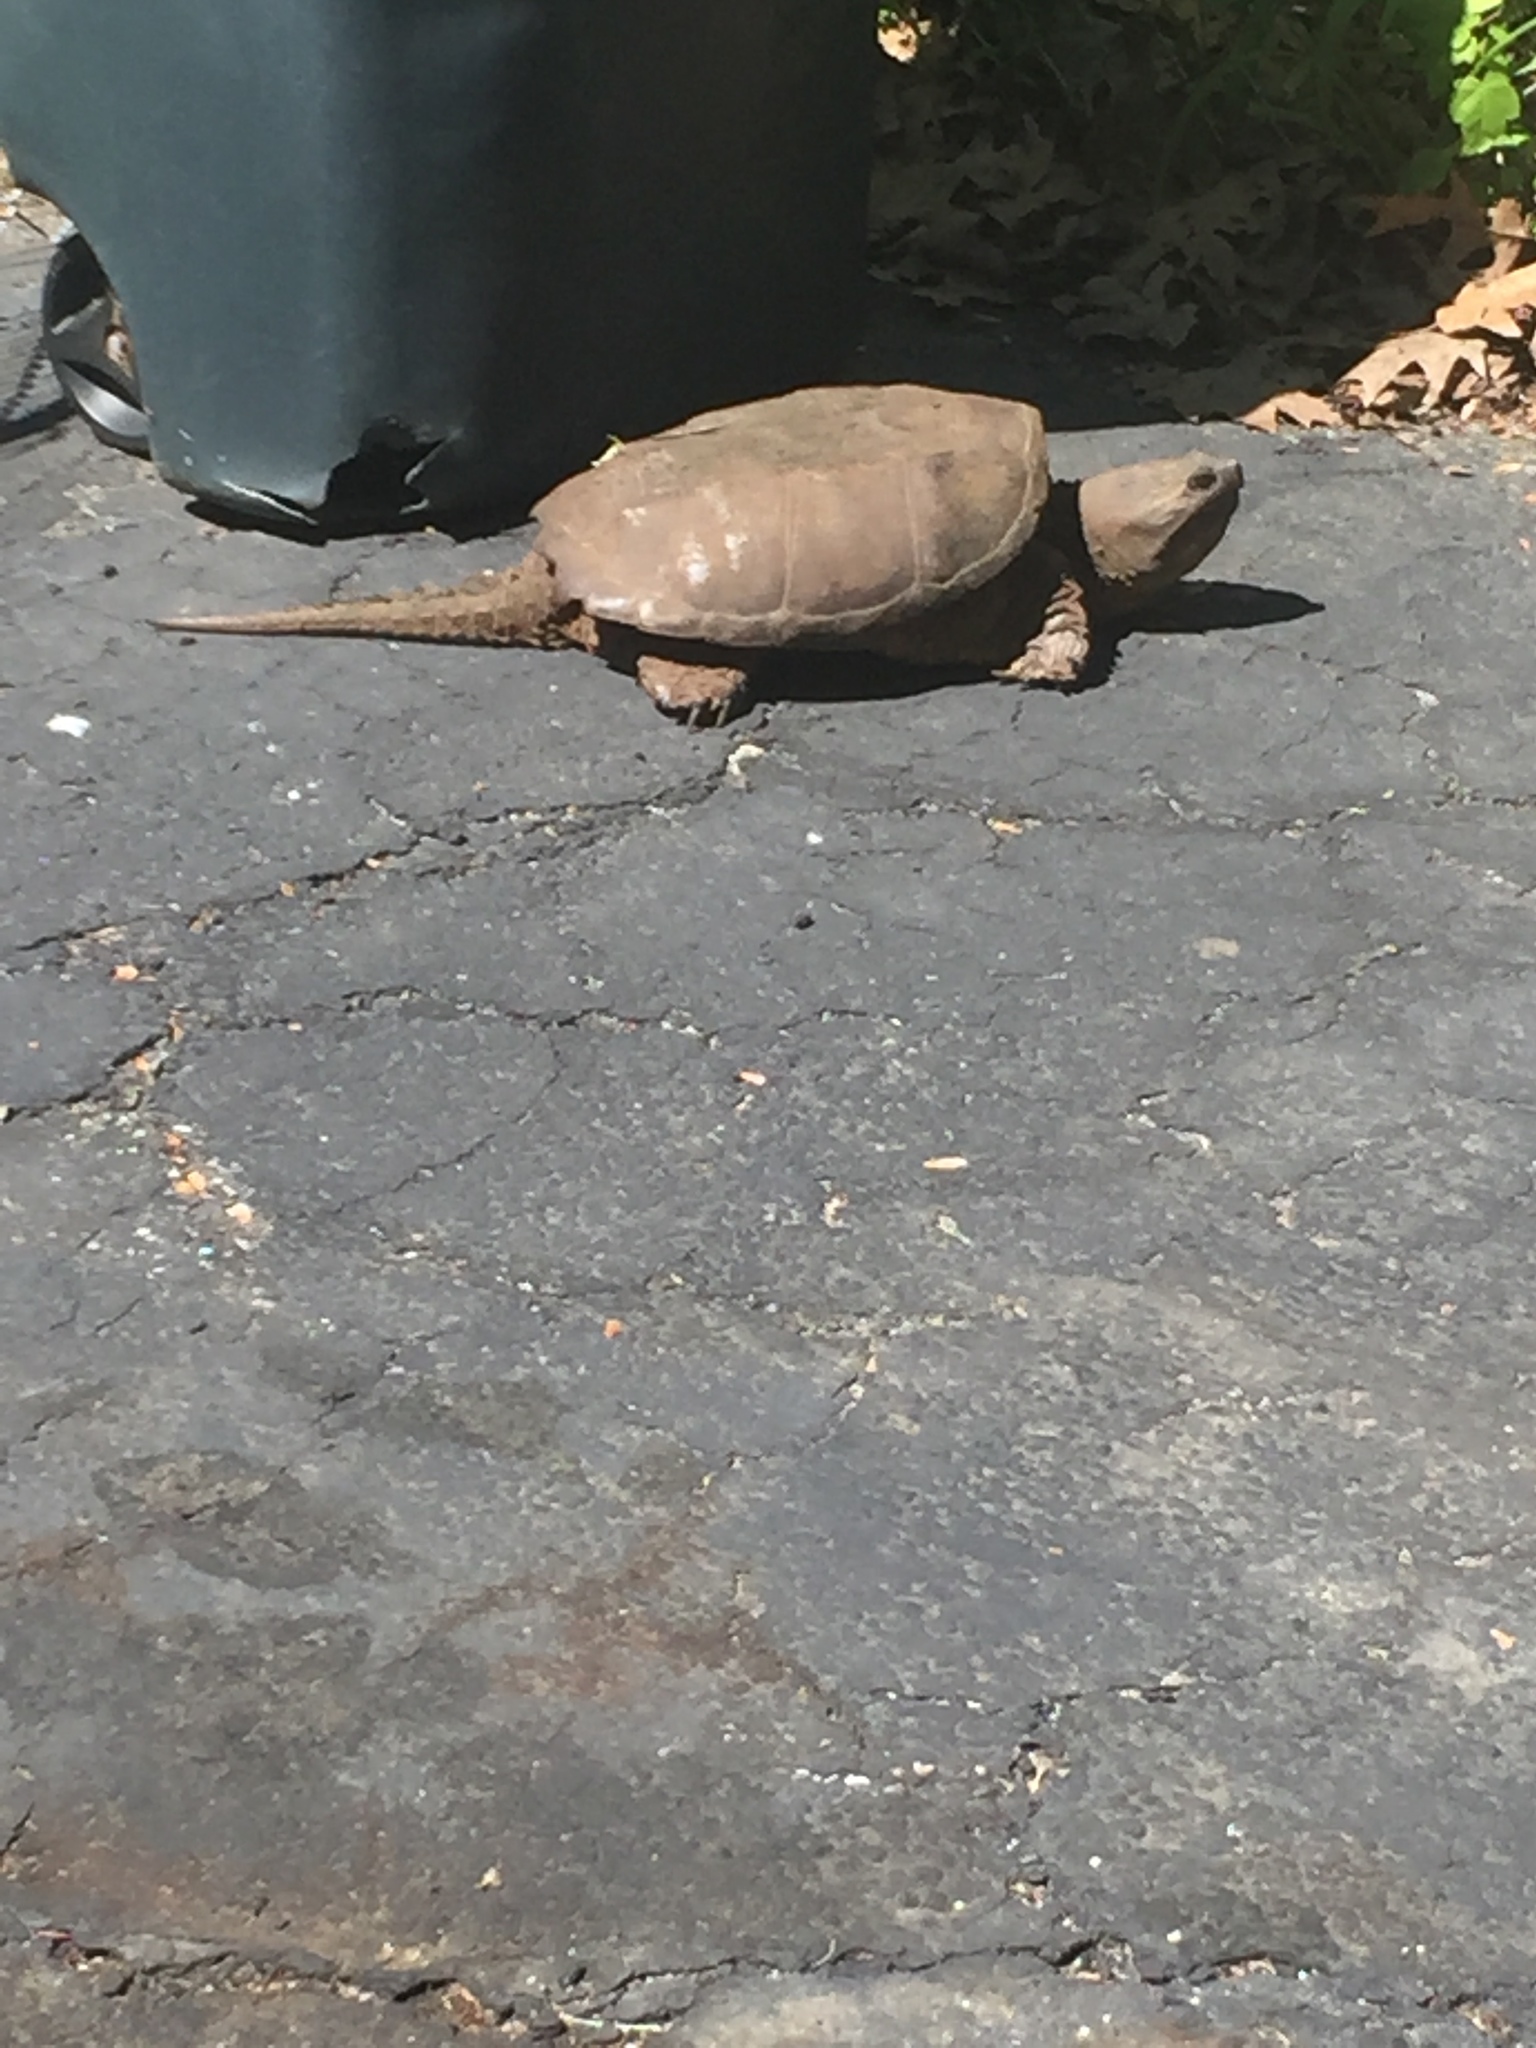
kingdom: Animalia
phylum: Chordata
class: Testudines
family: Chelydridae
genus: Chelydra
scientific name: Chelydra serpentina
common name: Common snapping turtle
